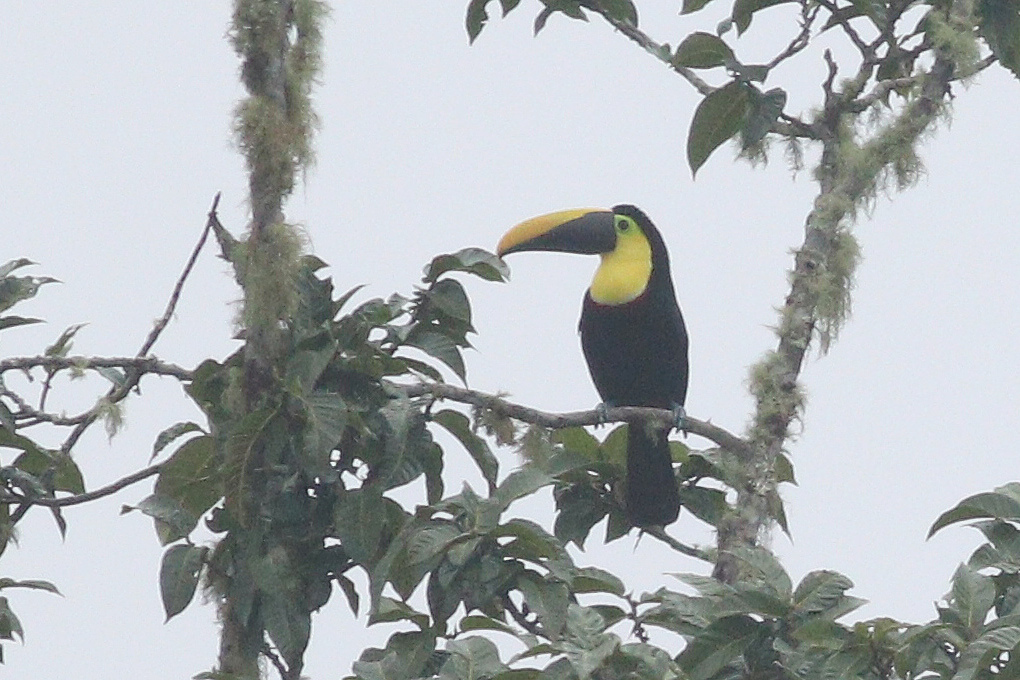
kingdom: Animalia
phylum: Chordata
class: Aves
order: Piciformes
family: Ramphastidae
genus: Ramphastos
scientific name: Ramphastos ambiguus
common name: Yellow-throated toucan
